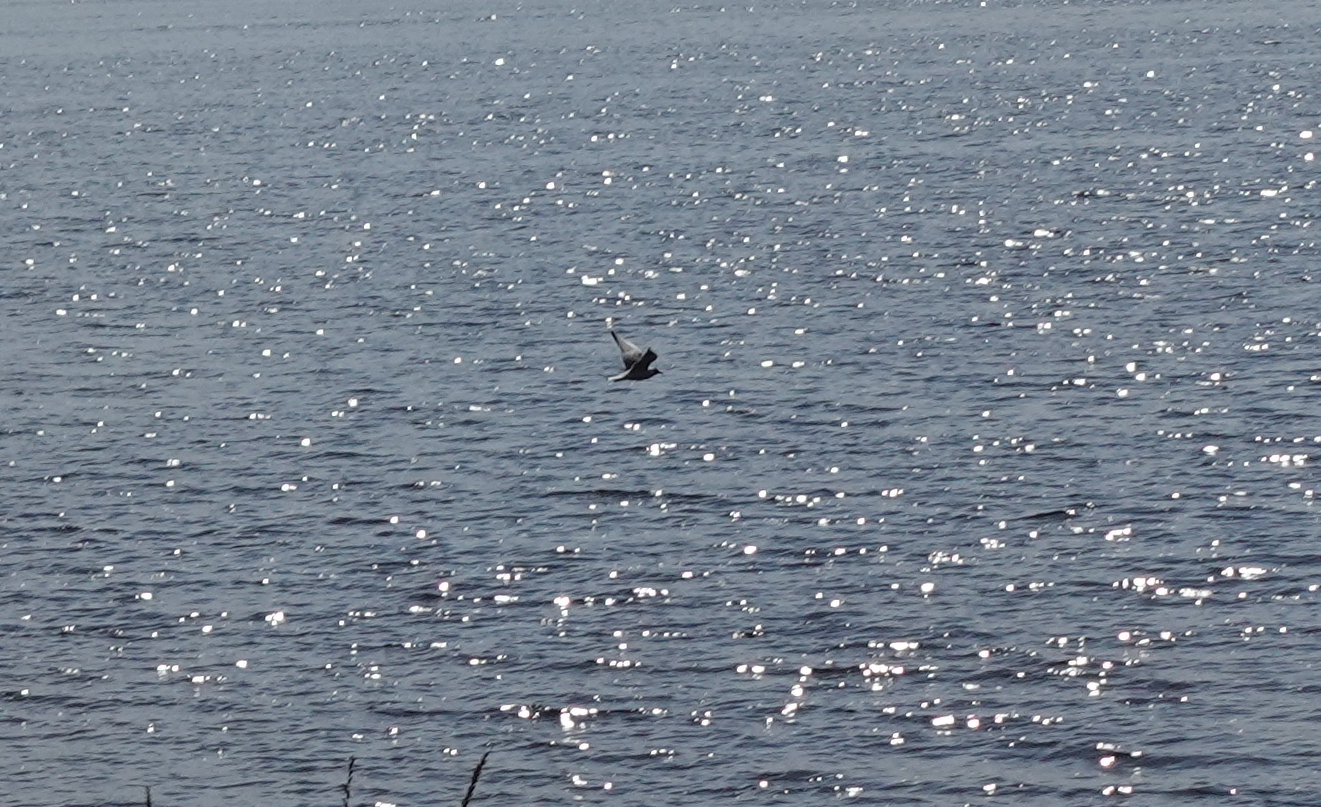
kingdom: Animalia
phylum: Chordata
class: Aves
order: Charadriiformes
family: Laridae
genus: Chroicocephalus
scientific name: Chroicocephalus ridibundus
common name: Black-headed gull
